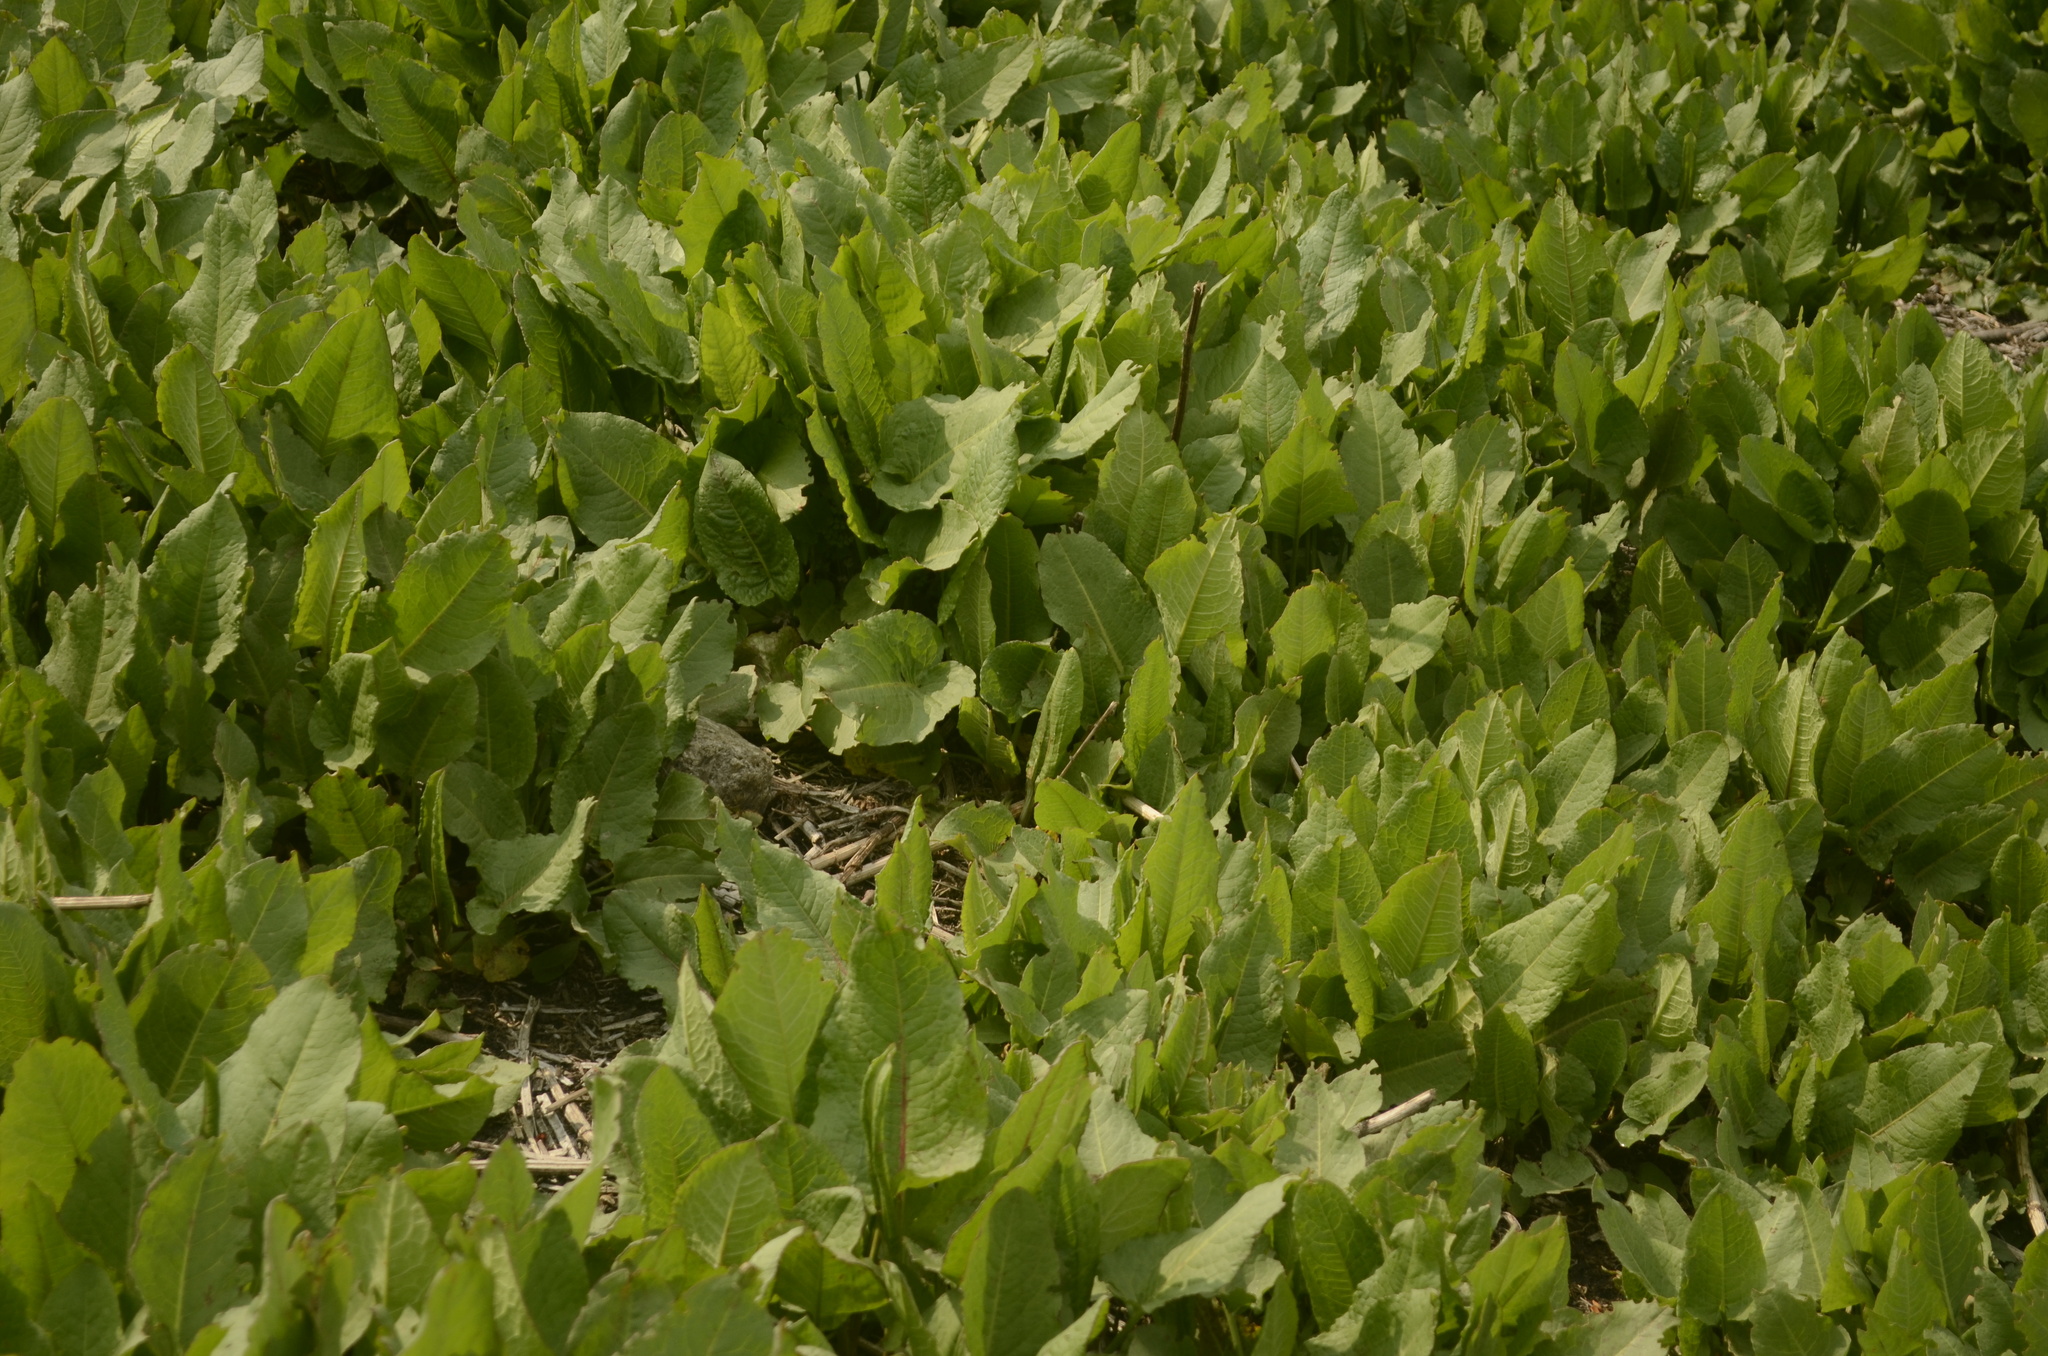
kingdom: Plantae
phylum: Tracheophyta
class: Magnoliopsida
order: Caryophyllales
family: Polygonaceae
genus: Rumex
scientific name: Rumex nepalensis
